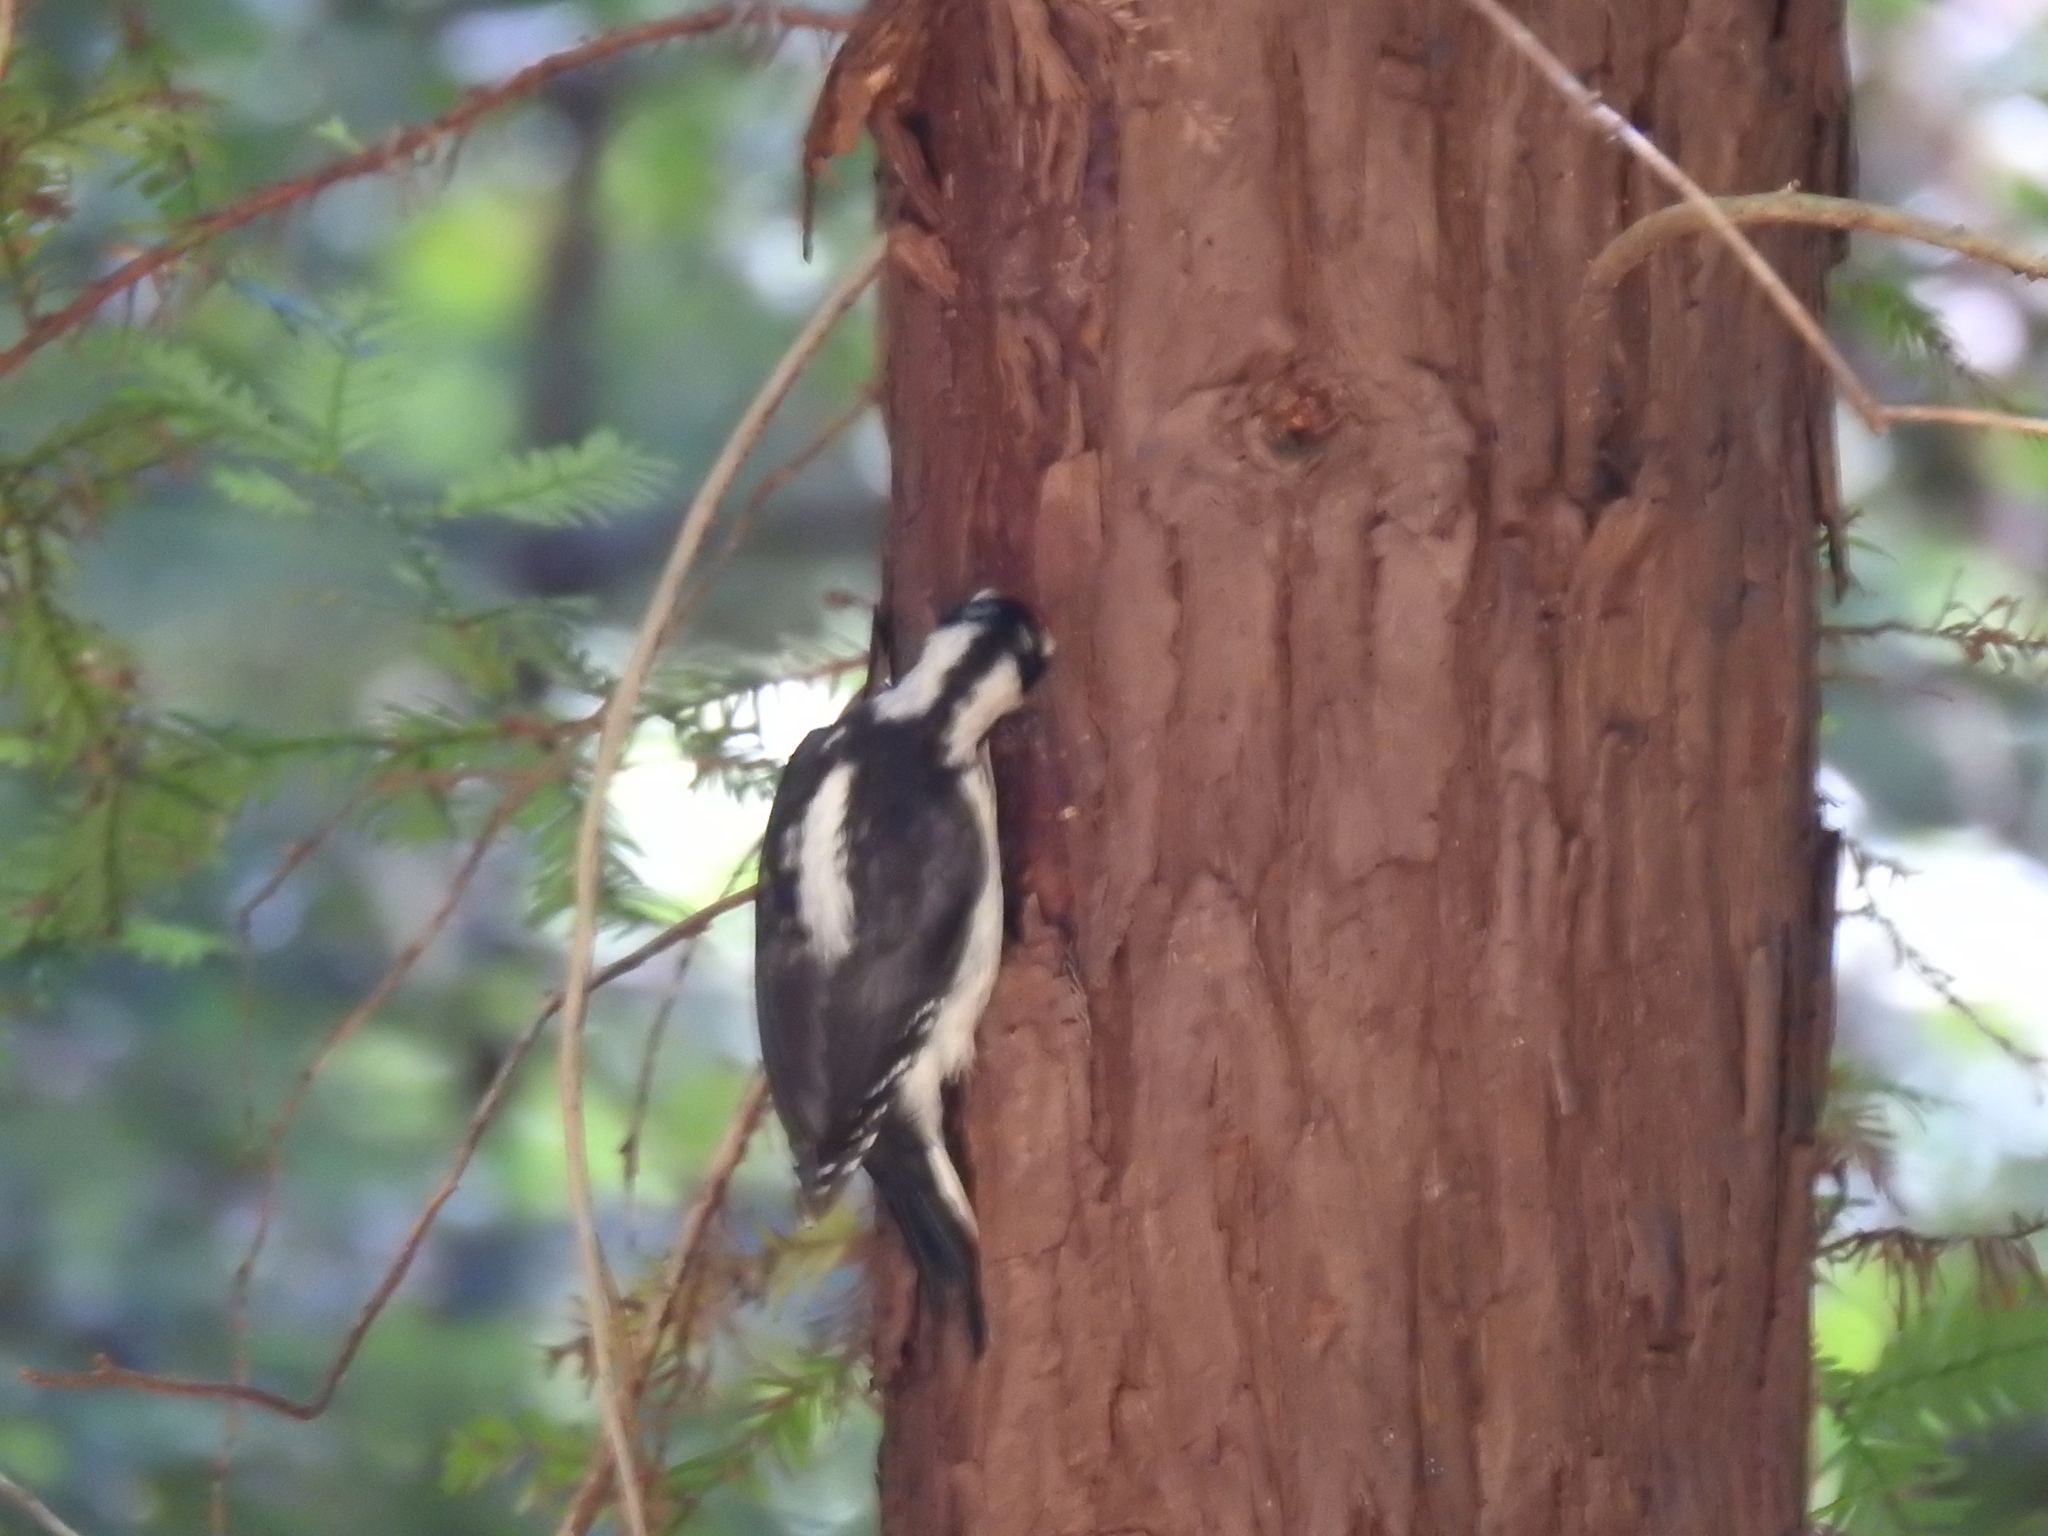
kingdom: Animalia
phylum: Chordata
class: Aves
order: Piciformes
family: Picidae
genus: Leuconotopicus
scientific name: Leuconotopicus villosus
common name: Hairy woodpecker
